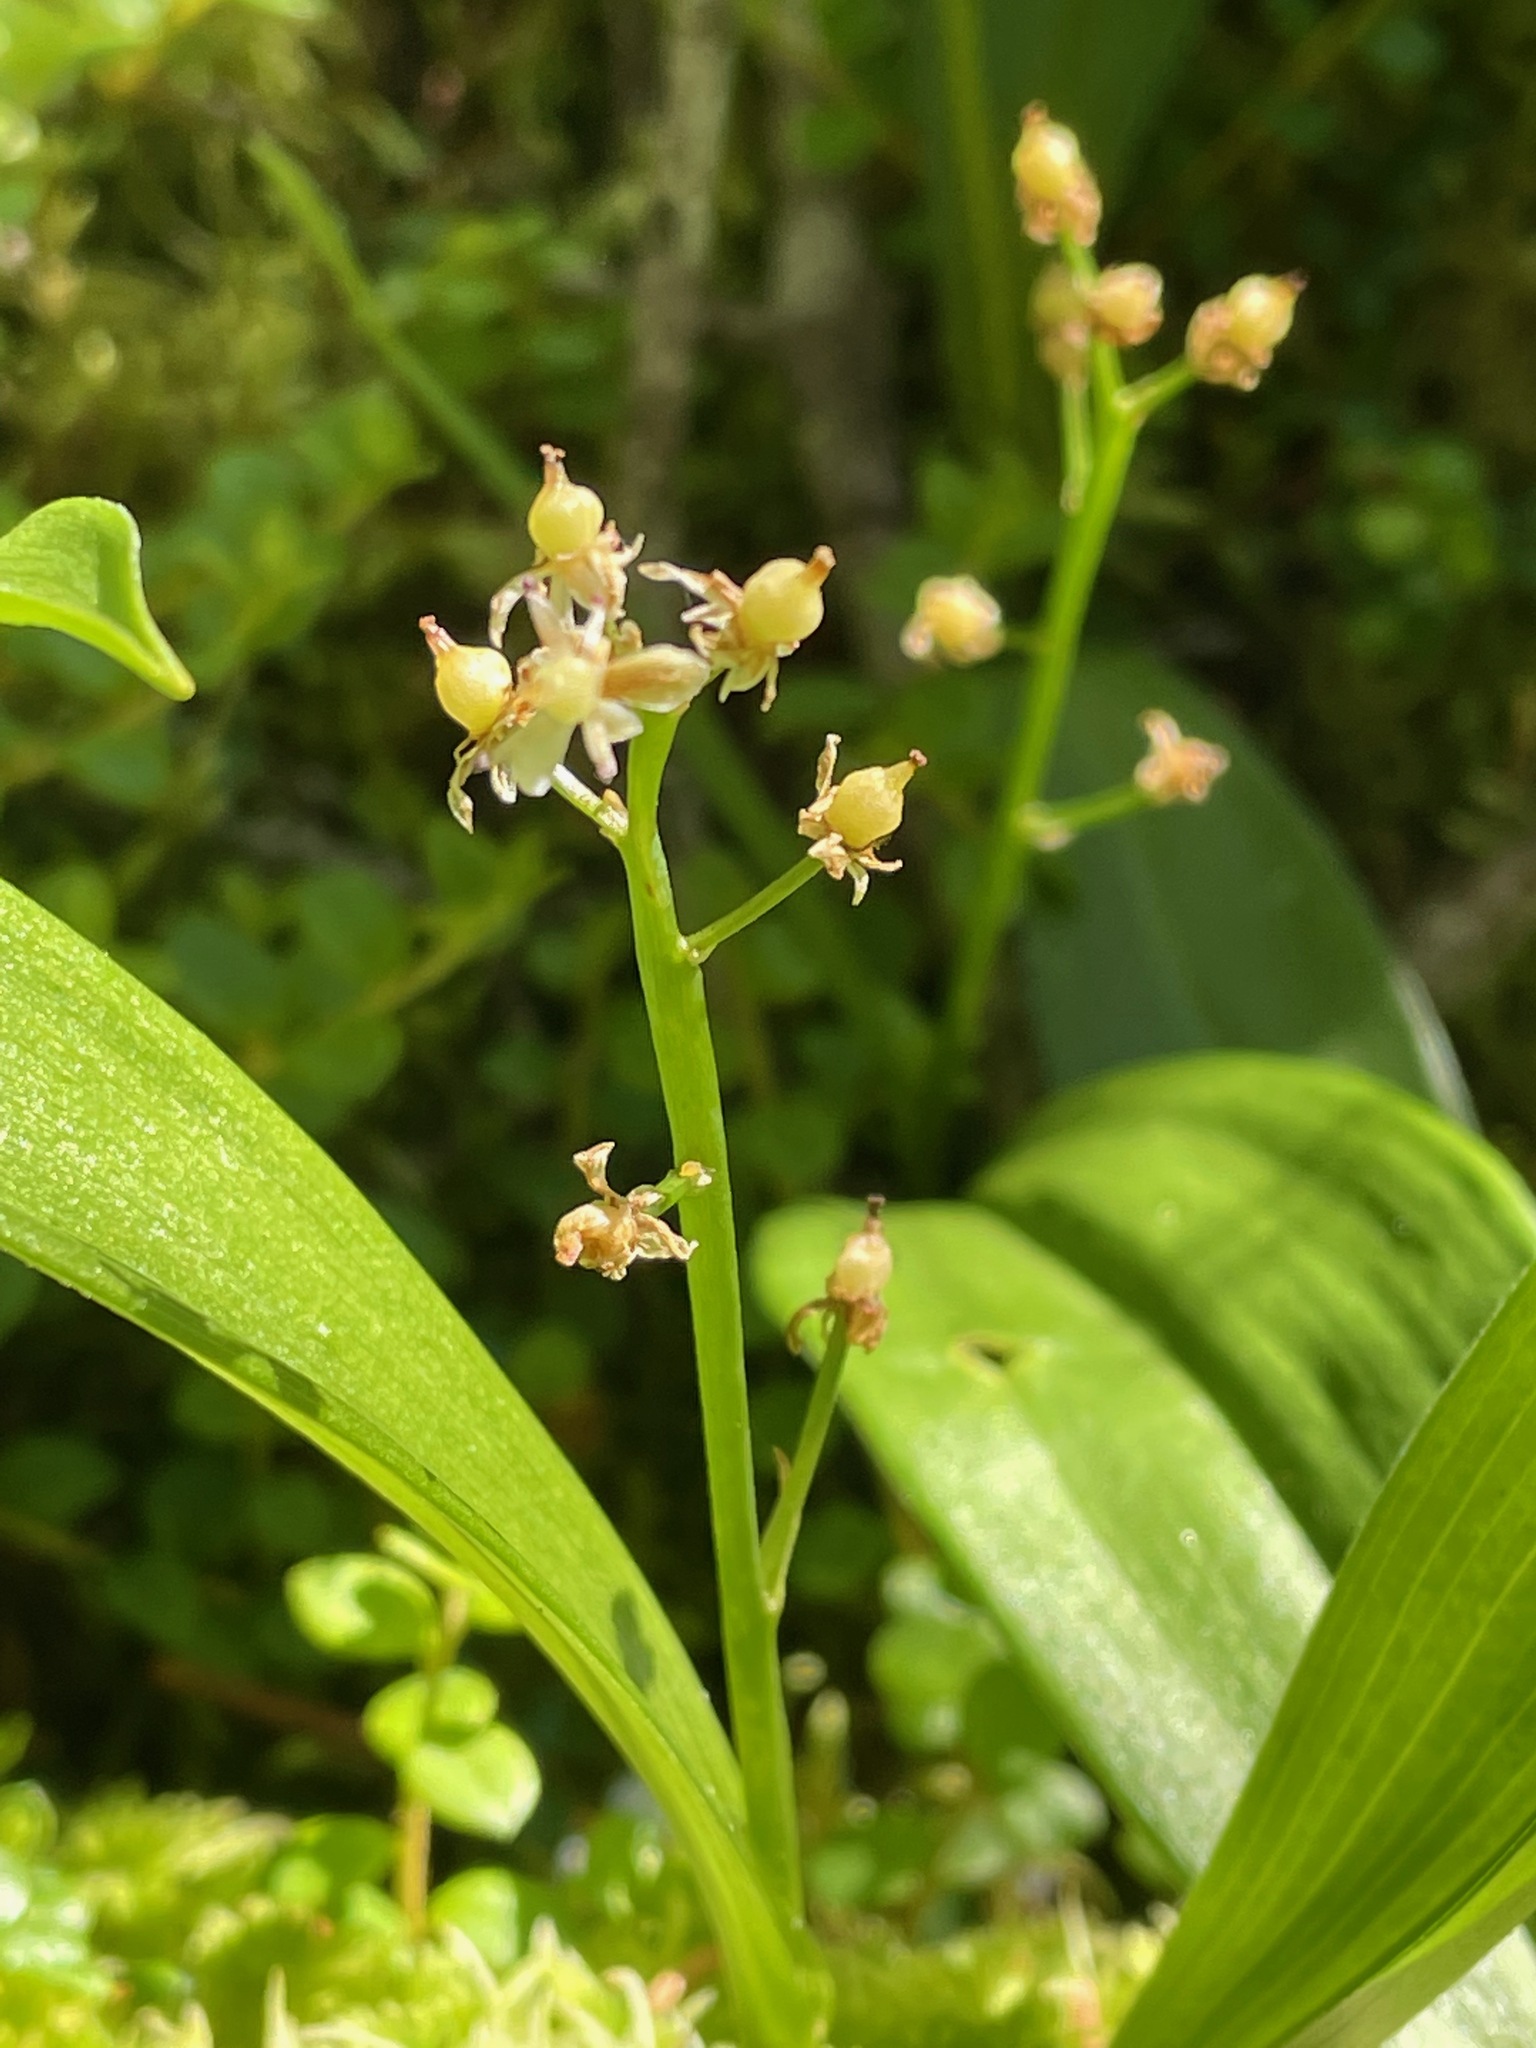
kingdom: Plantae
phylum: Tracheophyta
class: Liliopsida
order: Asparagales
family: Asparagaceae
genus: Maianthemum
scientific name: Maianthemum trifolium
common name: Swamp false solomon's seal
